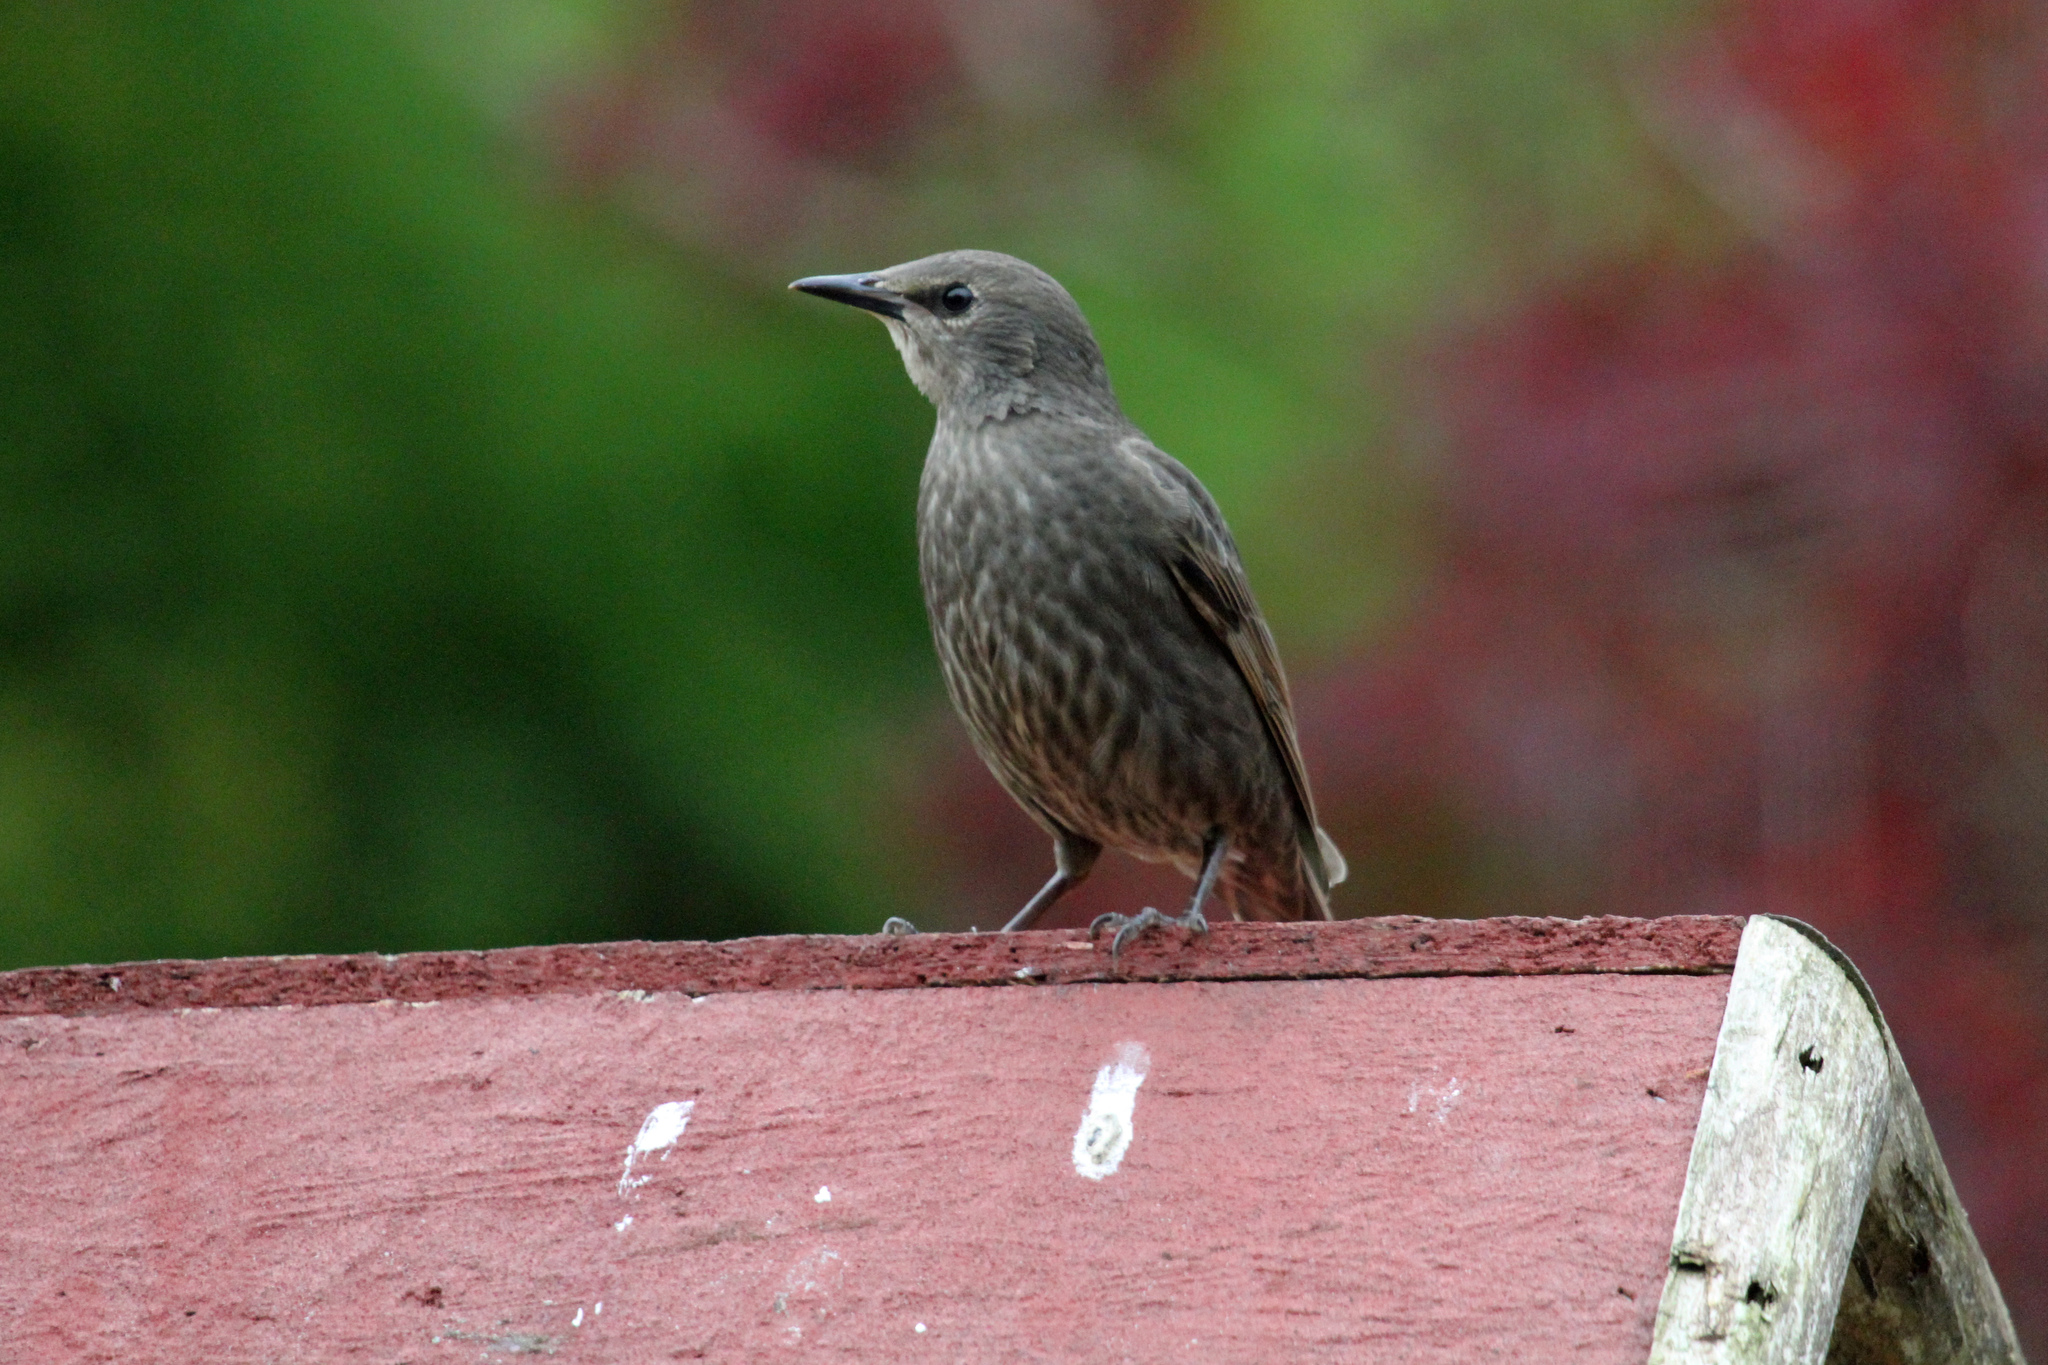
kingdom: Animalia
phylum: Chordata
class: Aves
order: Passeriformes
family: Sturnidae
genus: Sturnus
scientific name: Sturnus vulgaris
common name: Common starling
